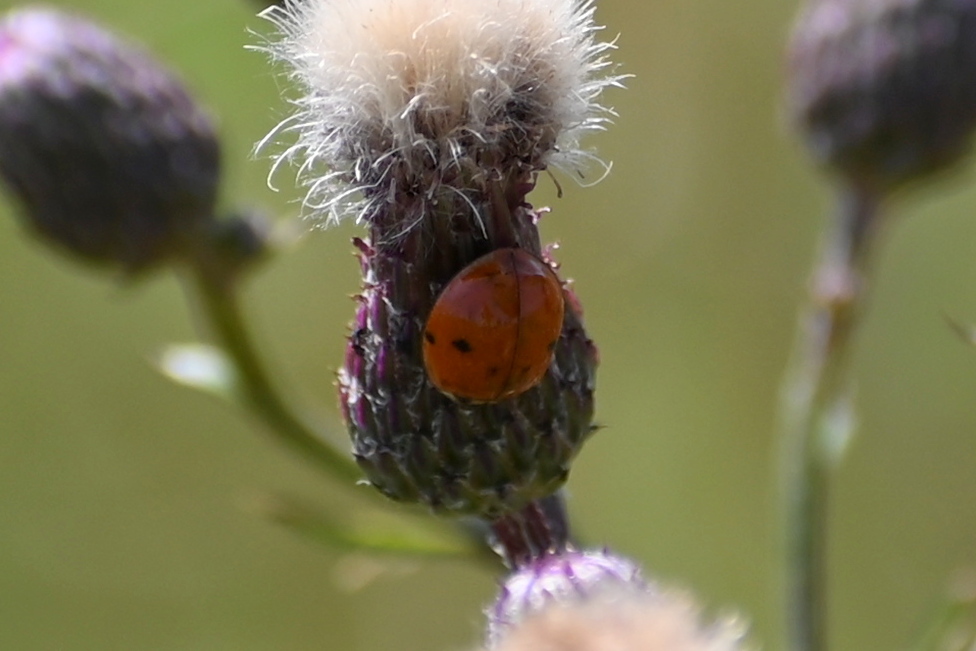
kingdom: Animalia
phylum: Arthropoda
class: Insecta
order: Coleoptera
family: Coccinellidae
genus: Harmonia
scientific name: Harmonia axyridis
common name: Harlequin ladybird
